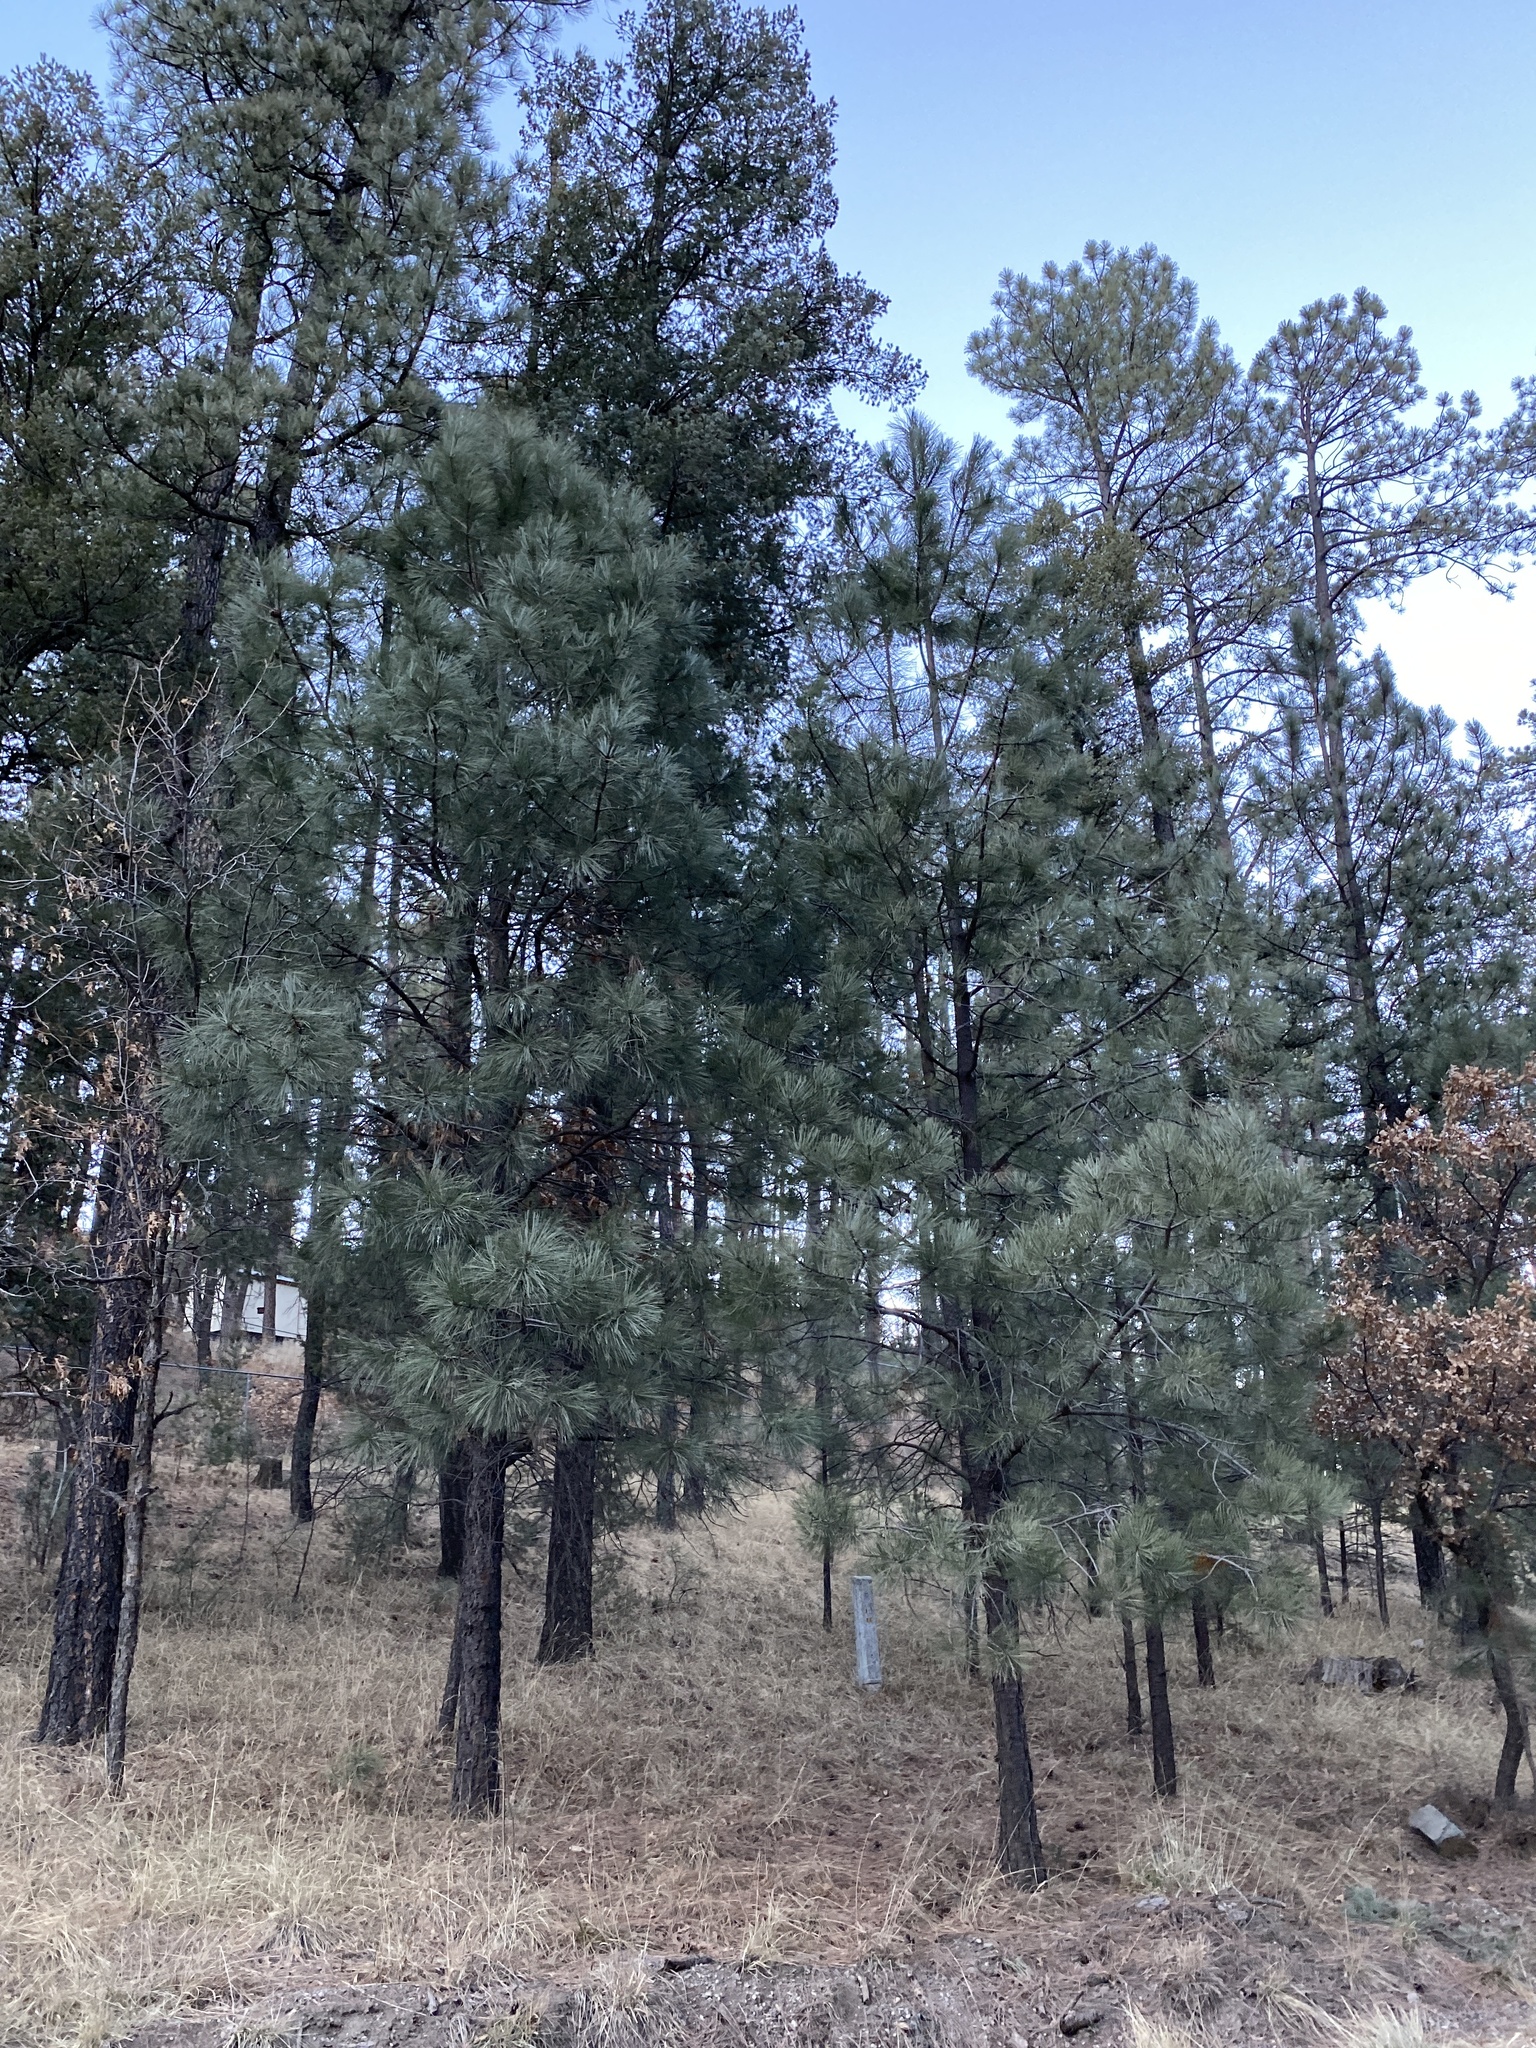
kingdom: Plantae
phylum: Tracheophyta
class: Pinopsida
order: Pinales
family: Pinaceae
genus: Pinus
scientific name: Pinus ponderosa
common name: Western yellow-pine
